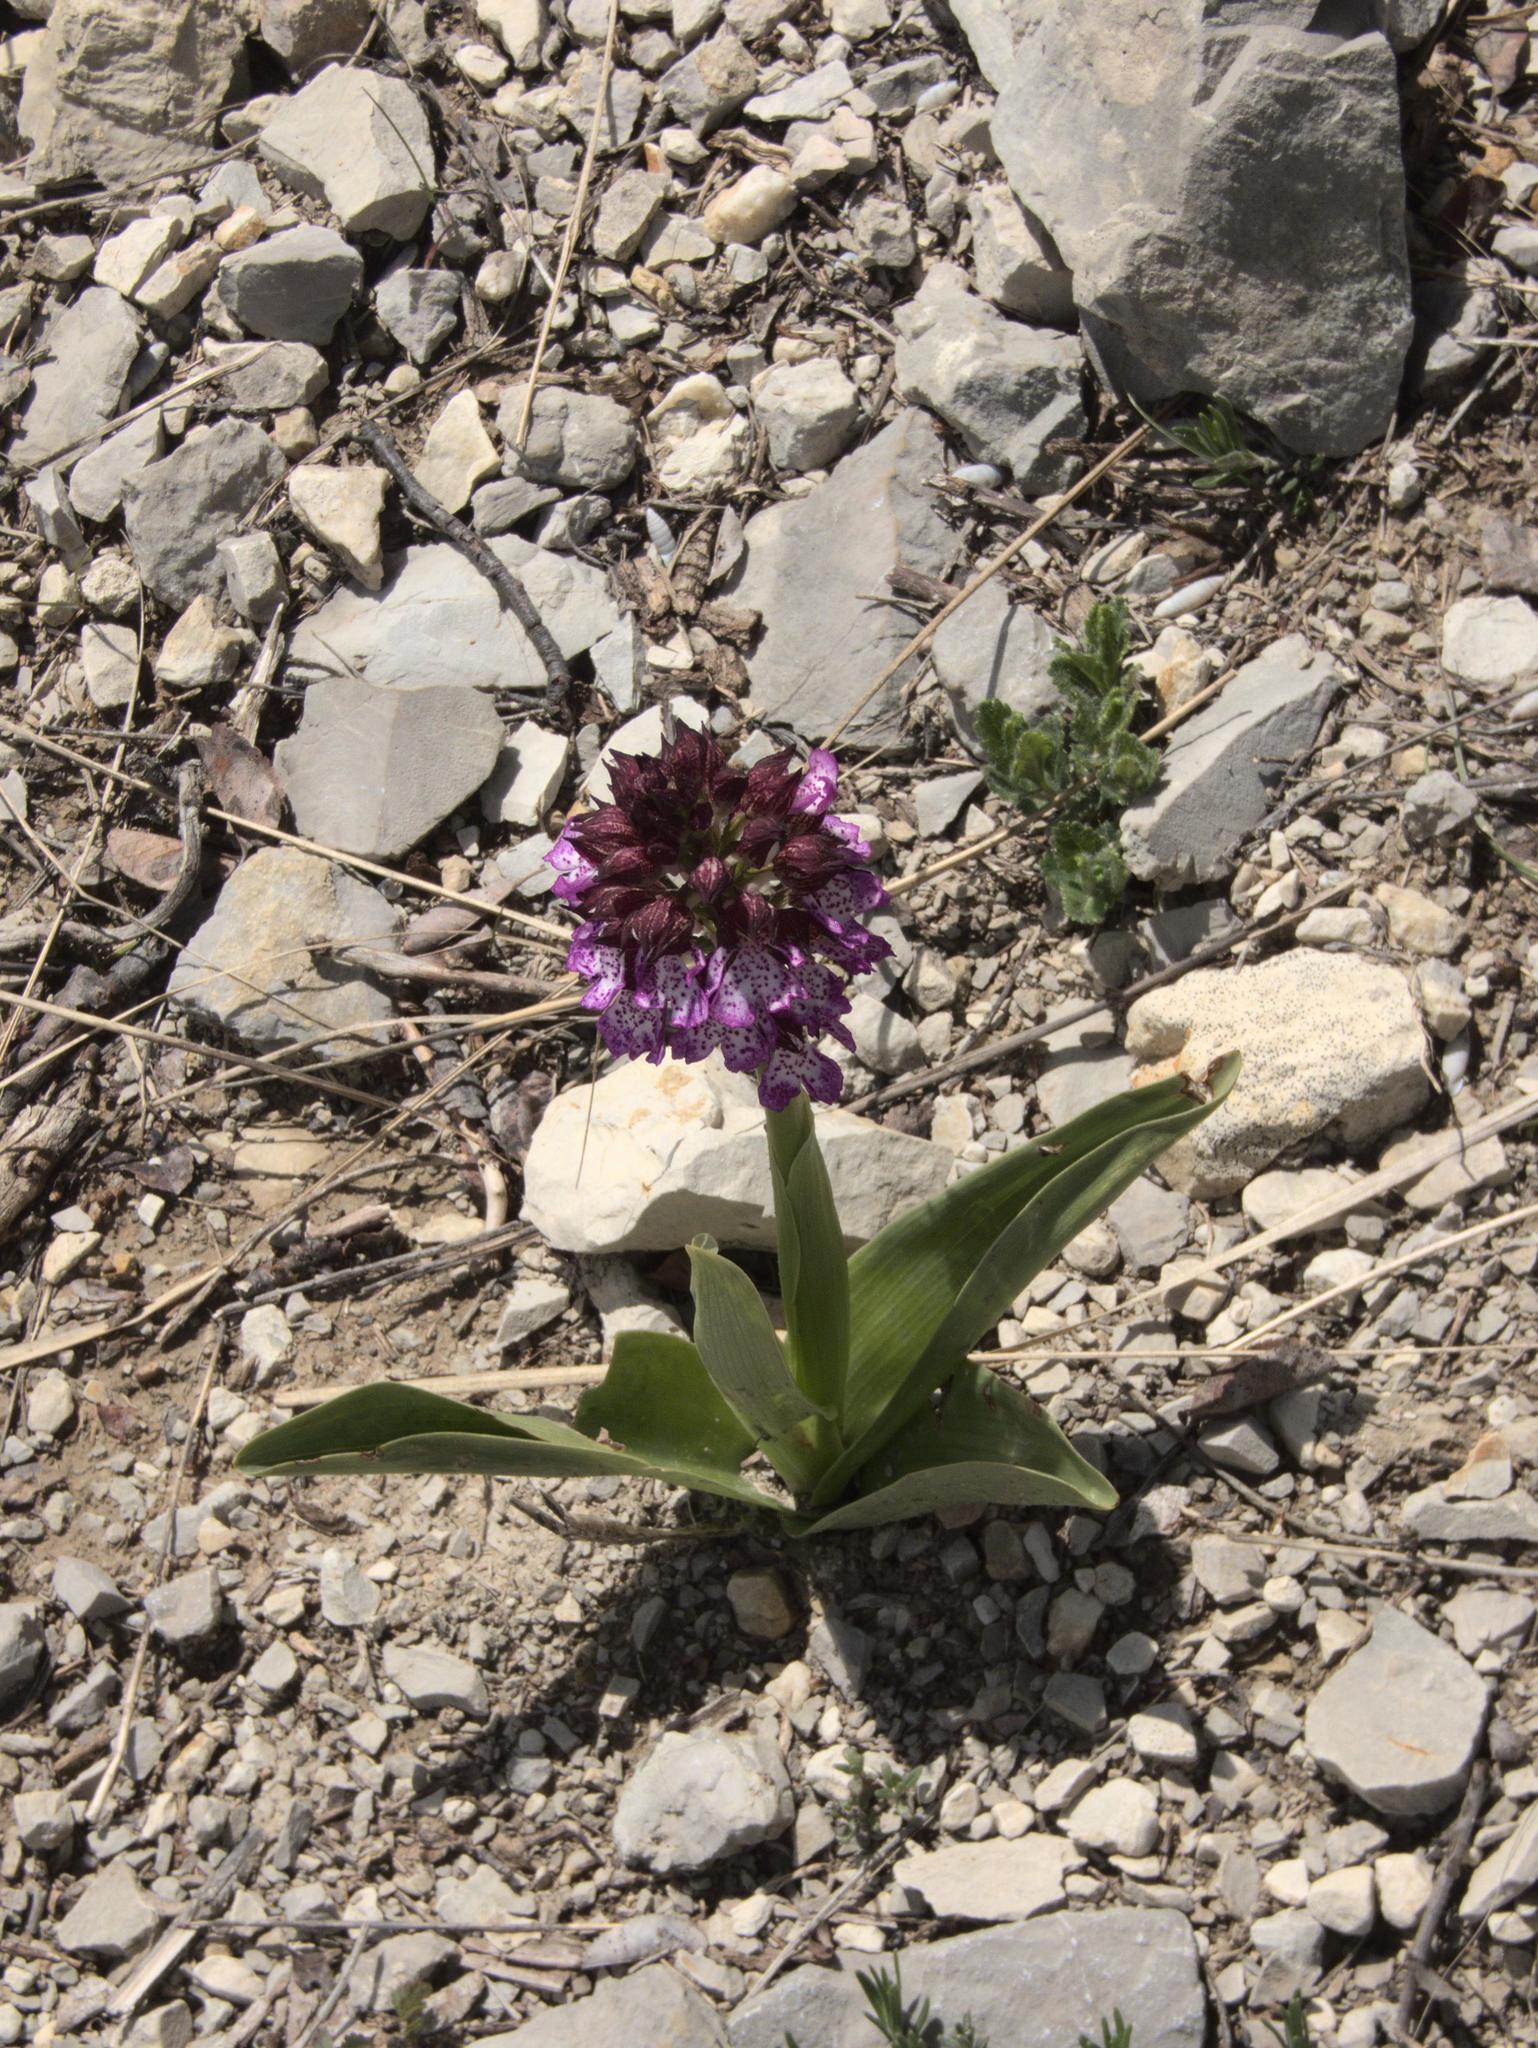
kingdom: Plantae
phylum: Tracheophyta
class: Liliopsida
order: Asparagales
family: Orchidaceae
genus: Orchis
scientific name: Orchis purpurea
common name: Lady orchid
